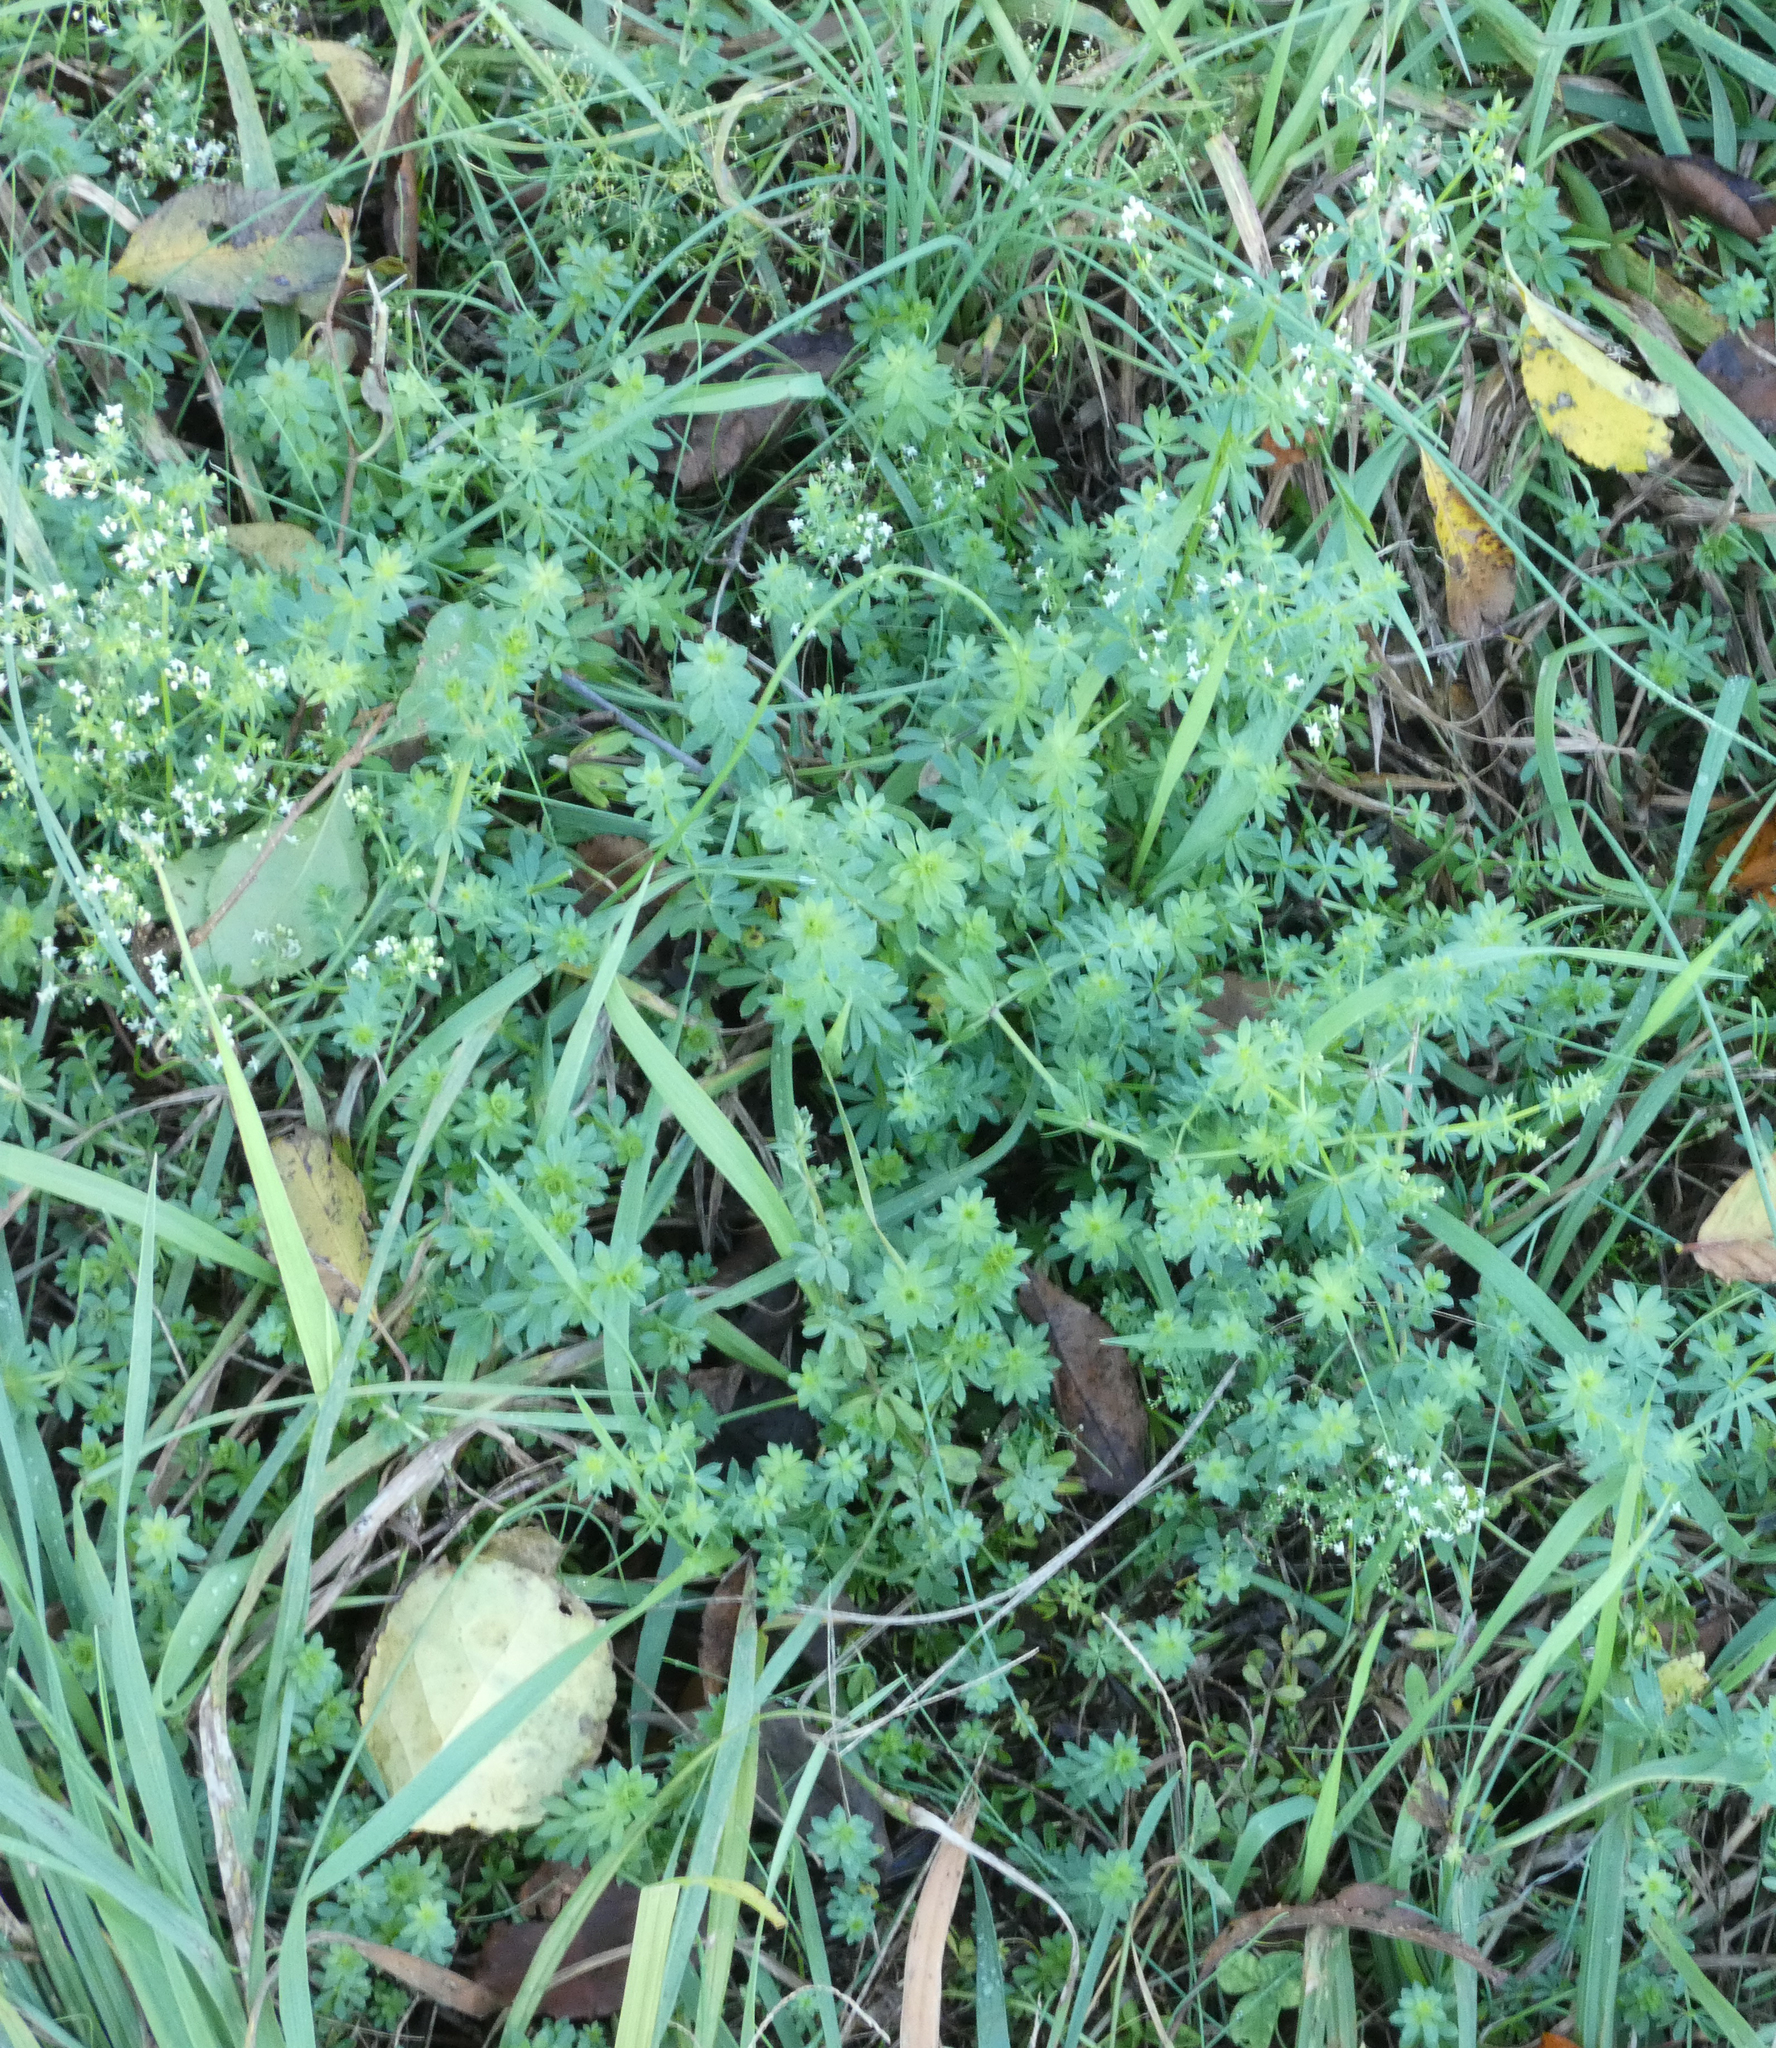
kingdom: Plantae
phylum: Tracheophyta
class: Magnoliopsida
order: Gentianales
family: Rubiaceae
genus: Galium
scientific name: Galium mollugo
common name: Hedge bedstraw
